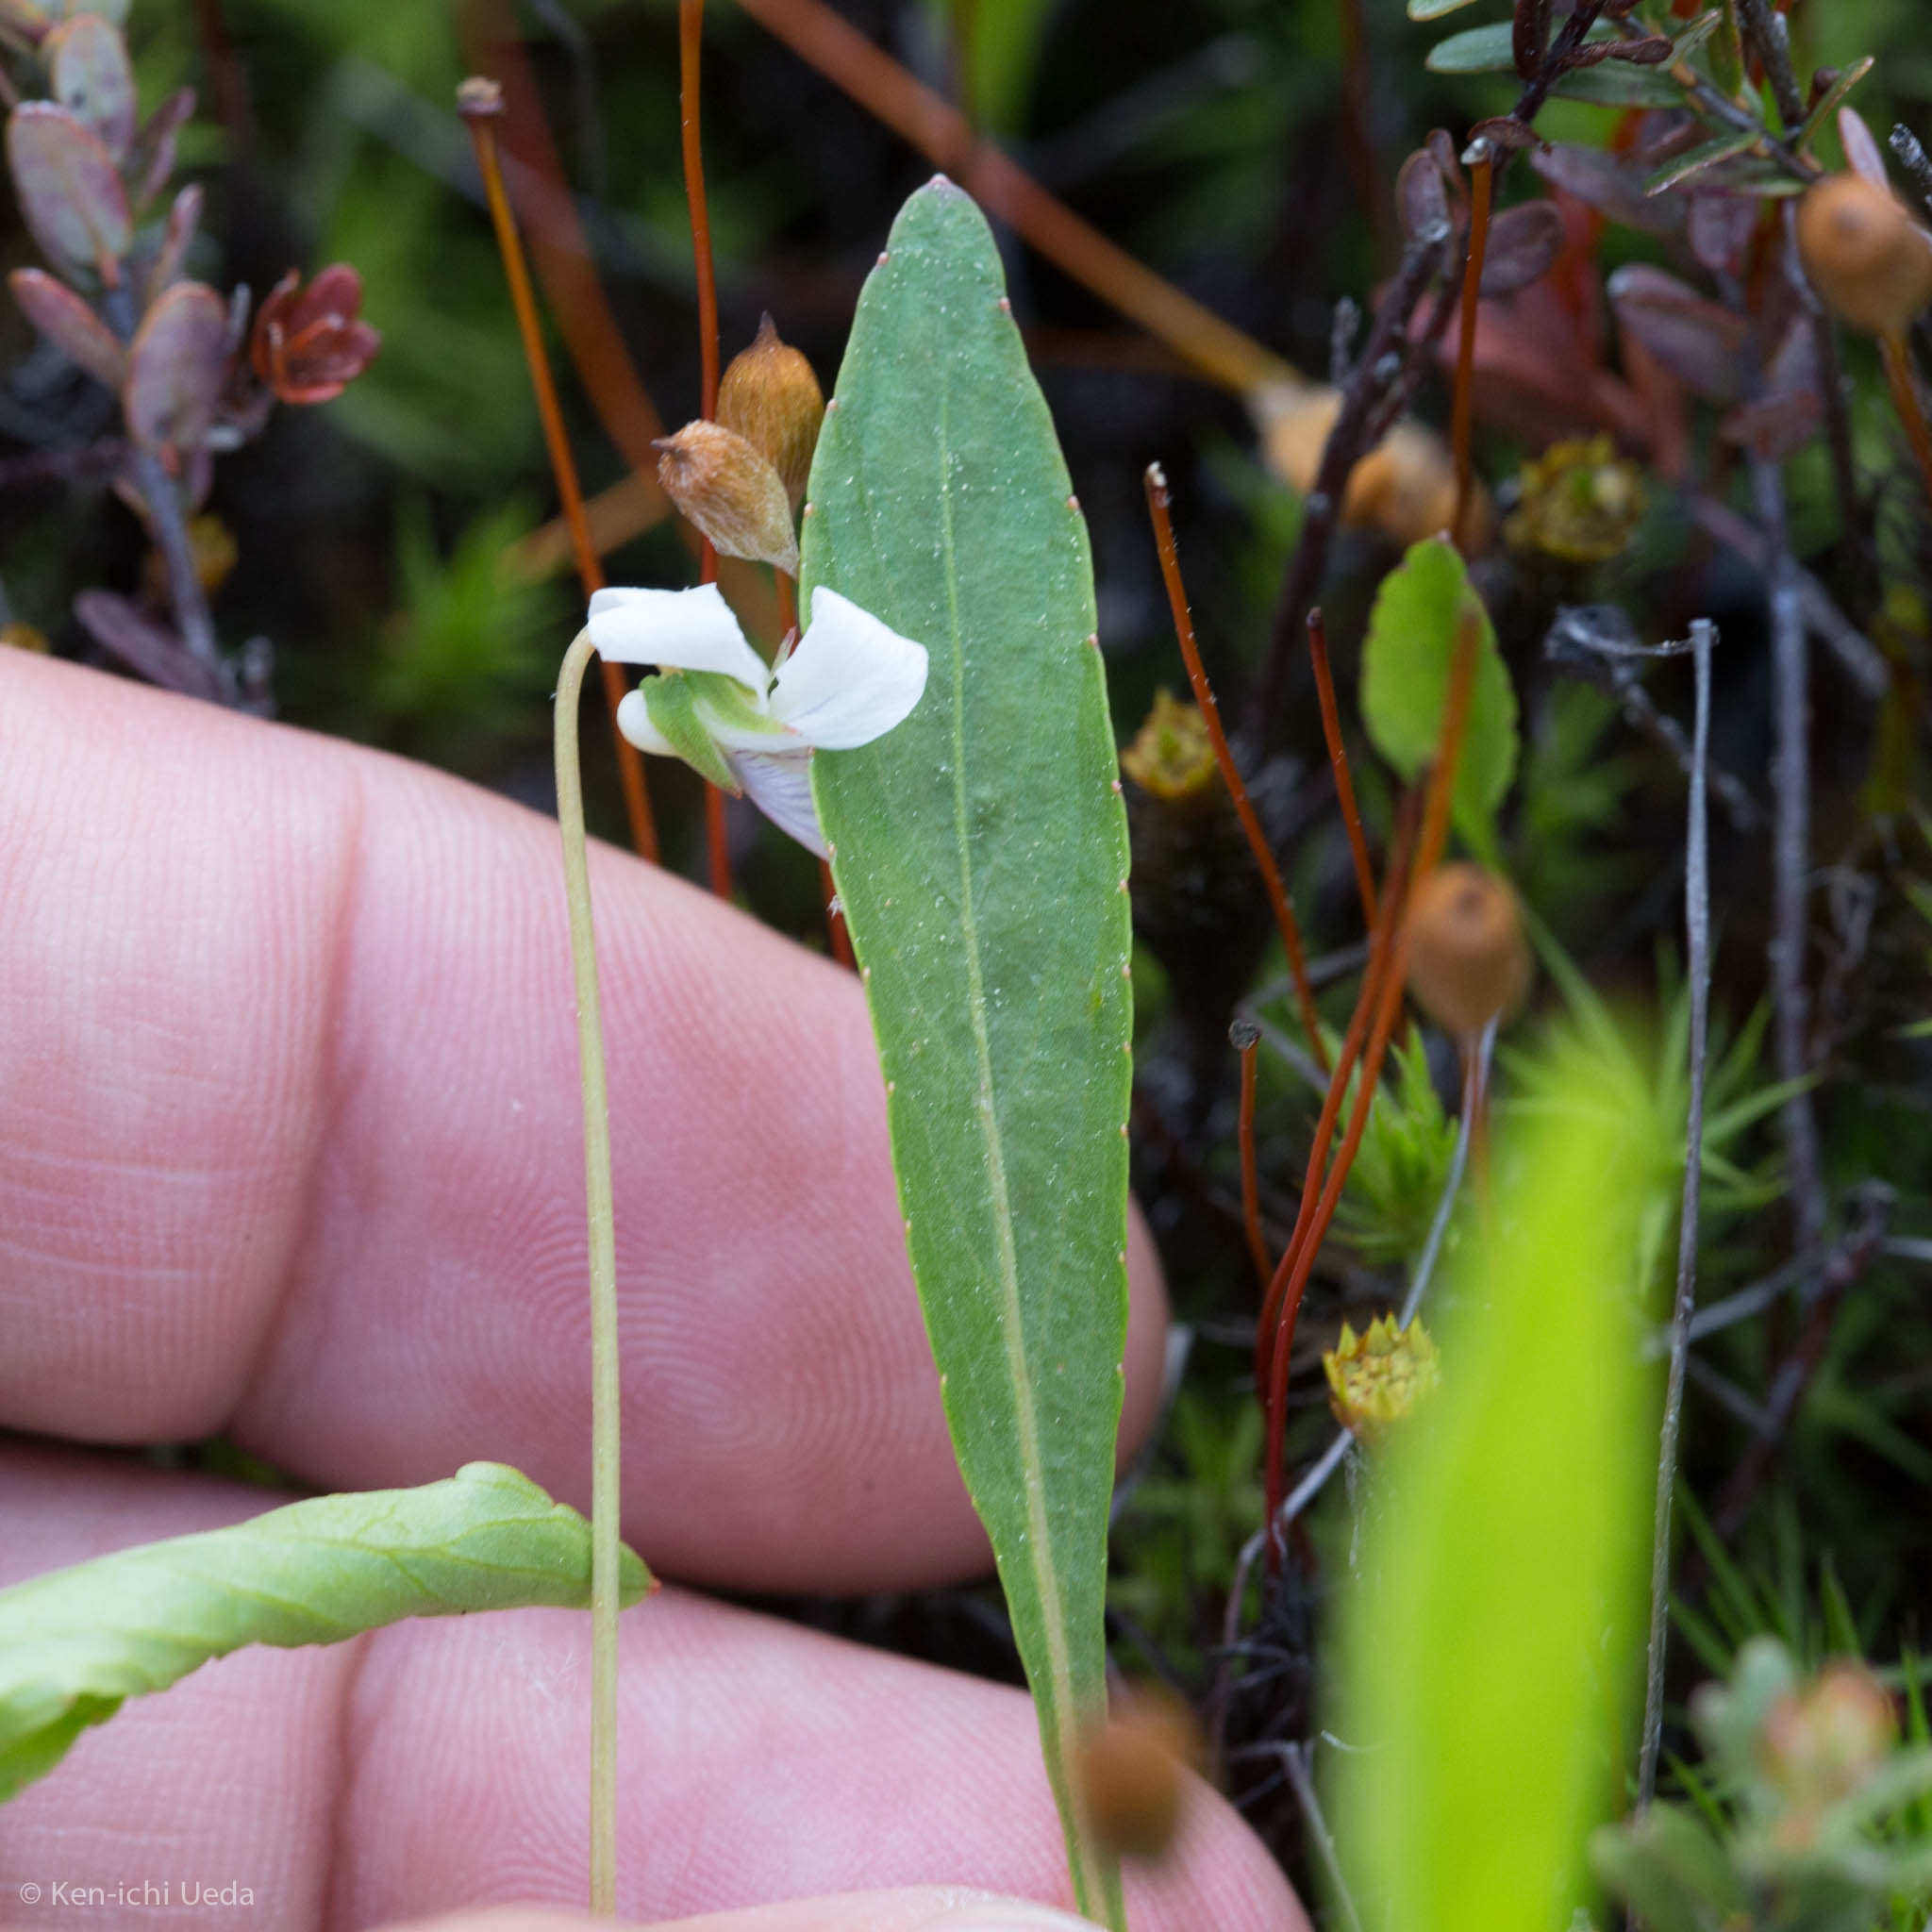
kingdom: Plantae
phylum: Tracheophyta
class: Magnoliopsida
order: Malpighiales
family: Violaceae
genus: Viola
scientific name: Viola lanceolata
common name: Bog white violet
